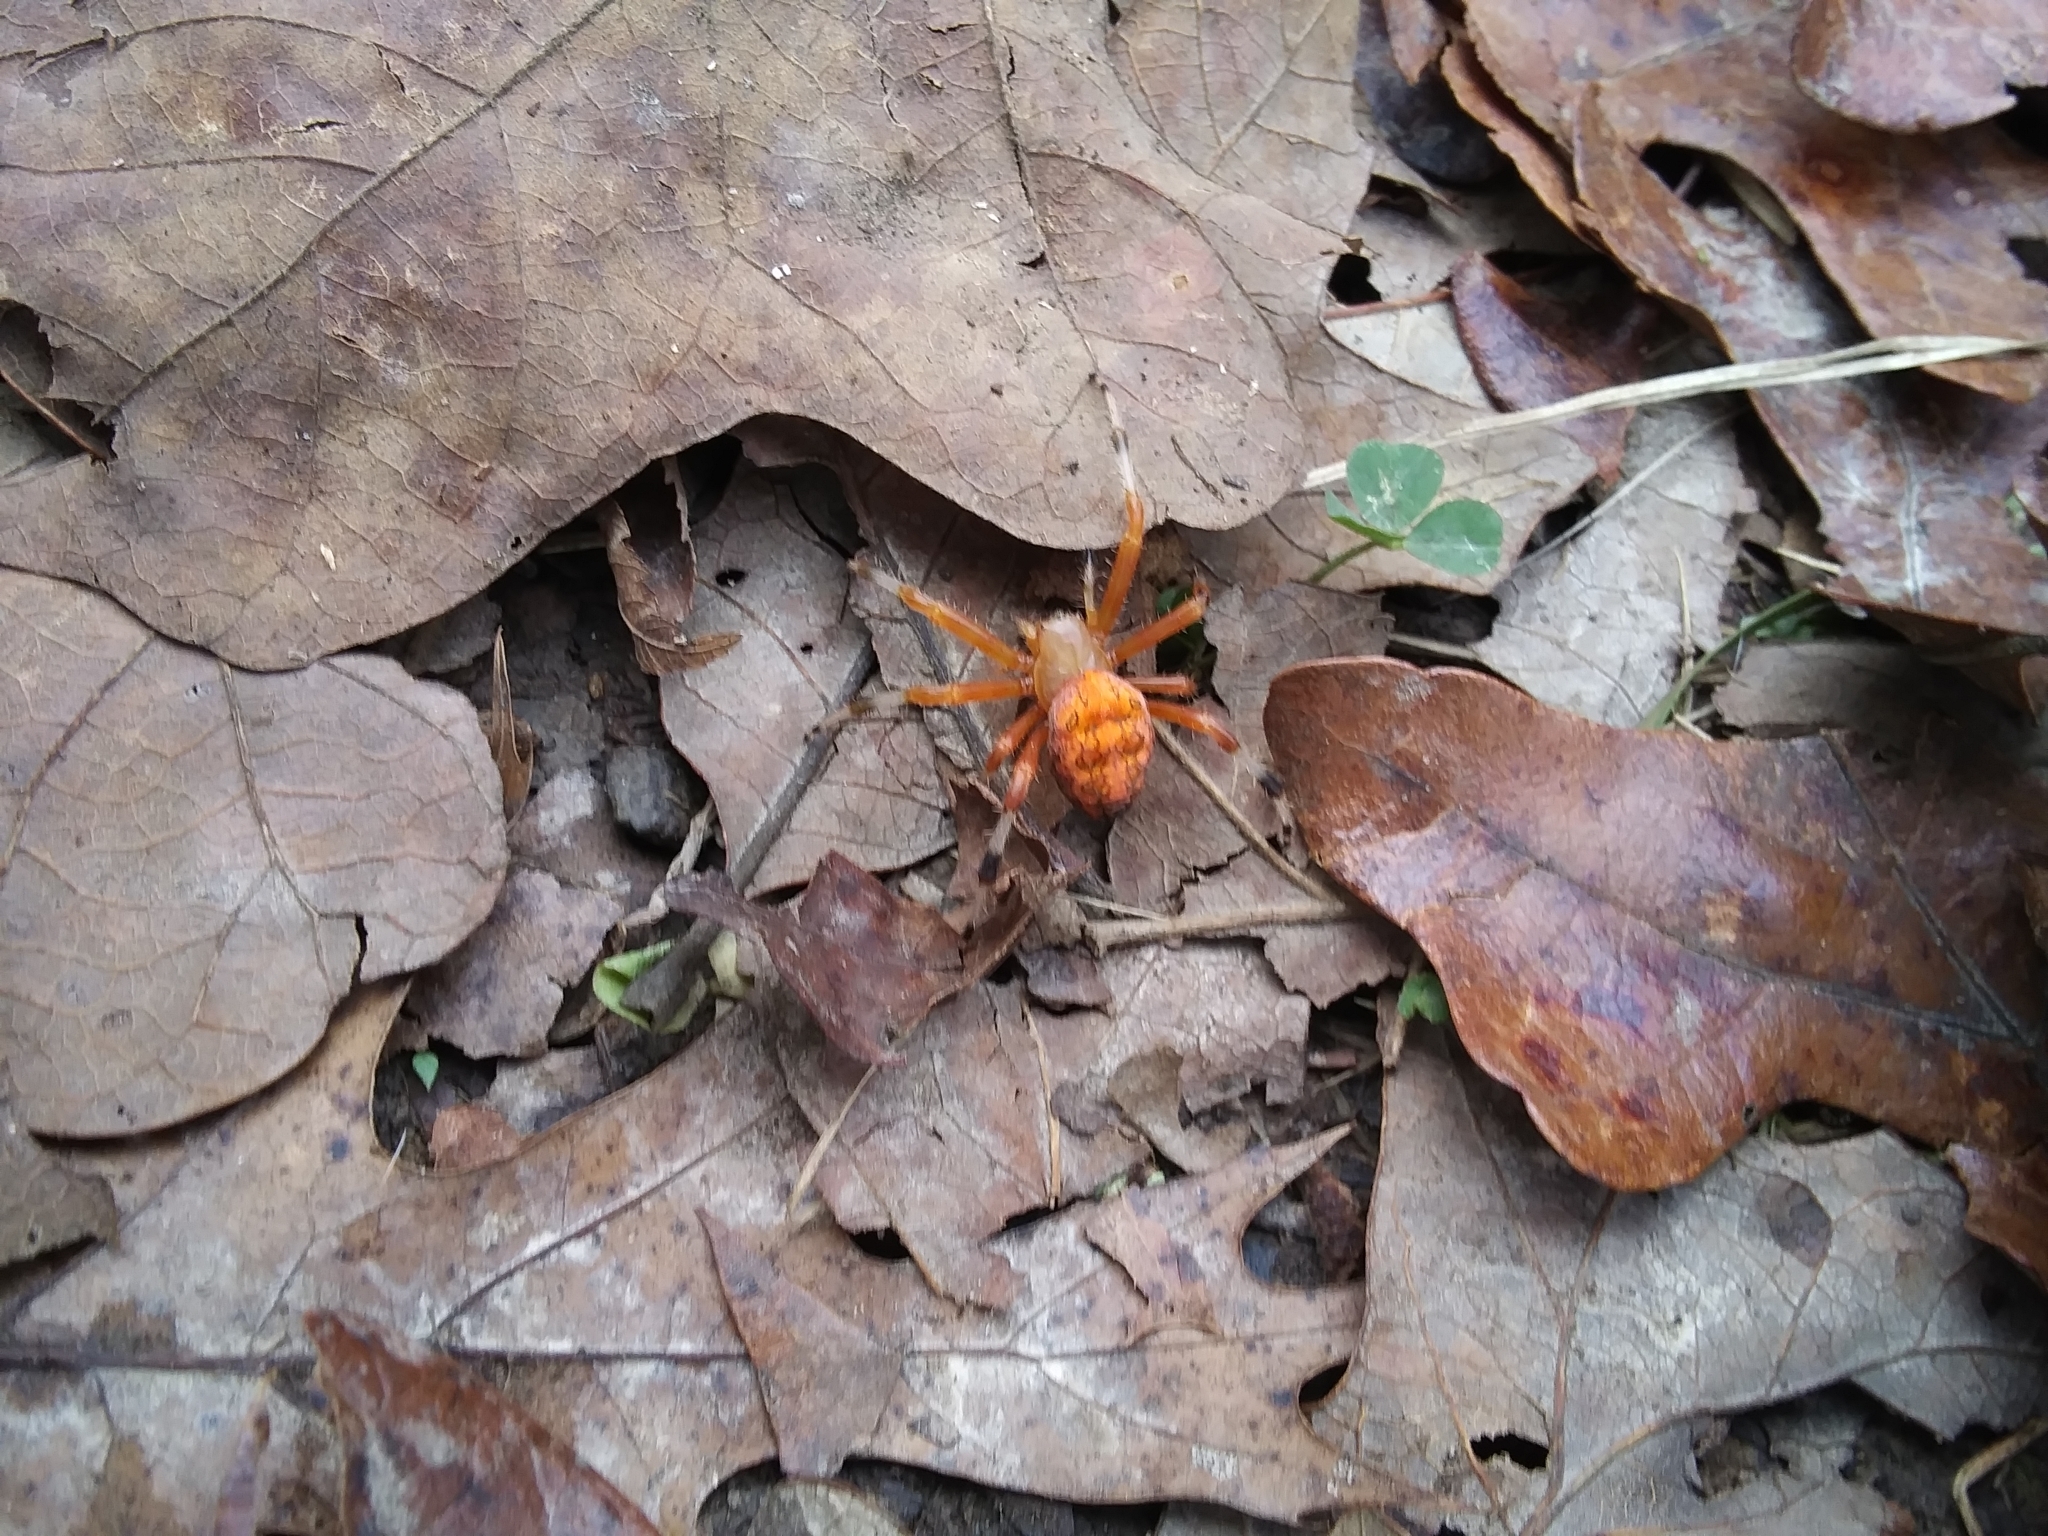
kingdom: Animalia
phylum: Arthropoda
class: Arachnida
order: Araneae
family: Araneidae
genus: Araneus
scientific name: Araneus marmoreus
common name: Marbled orbweaver
